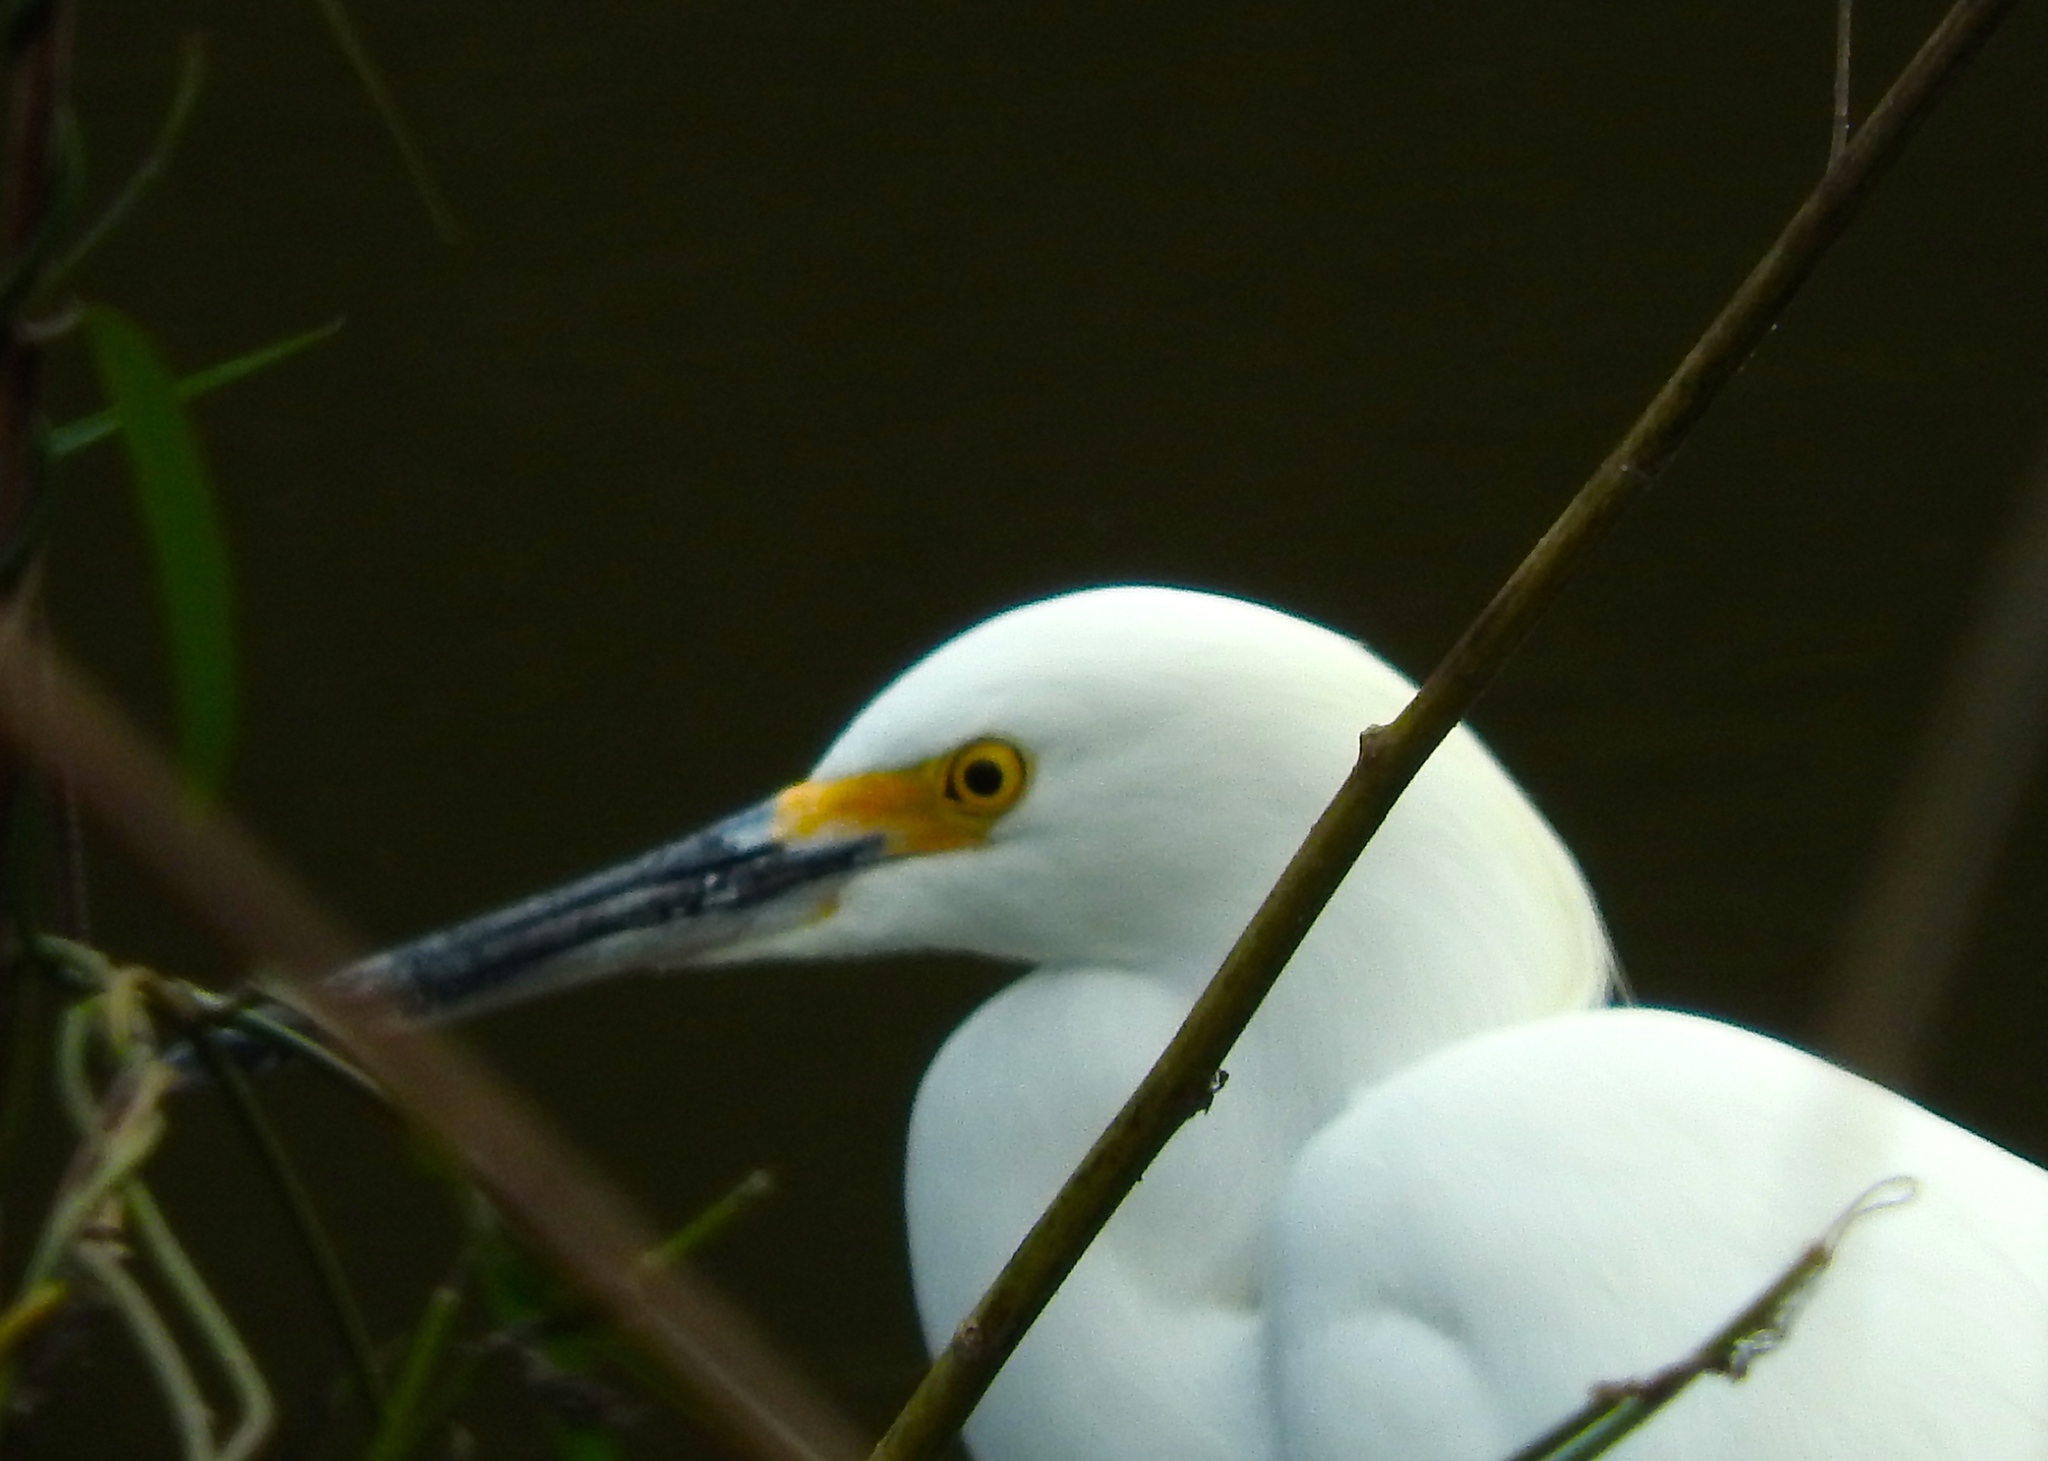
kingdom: Animalia
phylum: Chordata
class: Aves
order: Pelecaniformes
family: Ardeidae
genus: Egretta
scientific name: Egretta thula
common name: Snowy egret
